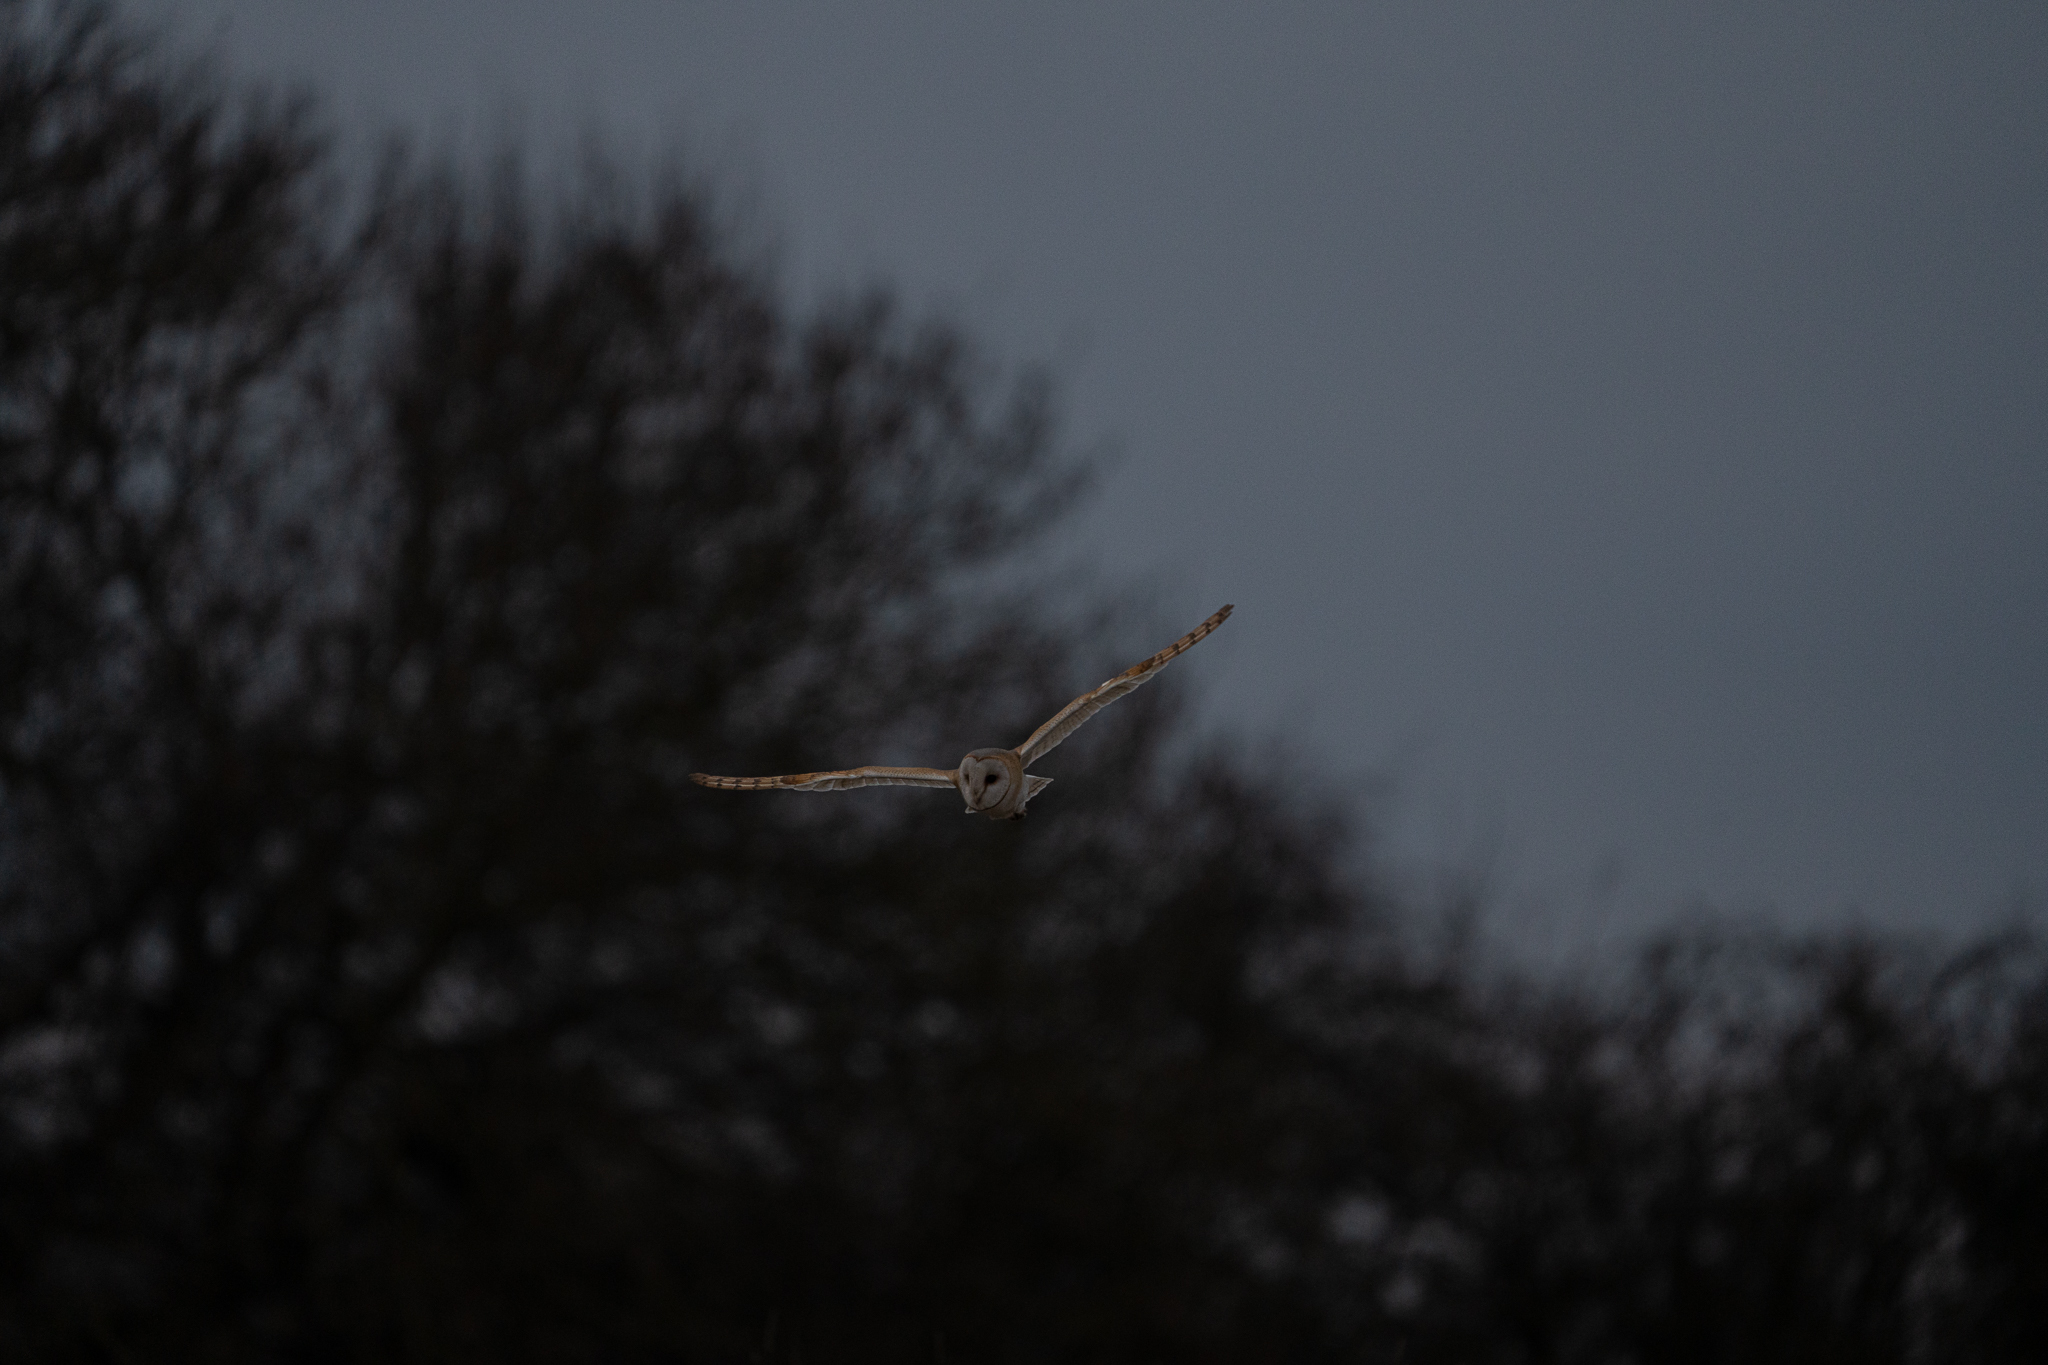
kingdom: Animalia
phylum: Chordata
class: Aves
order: Strigiformes
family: Tytonidae
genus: Tyto
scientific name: Tyto alba
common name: Barn owl
